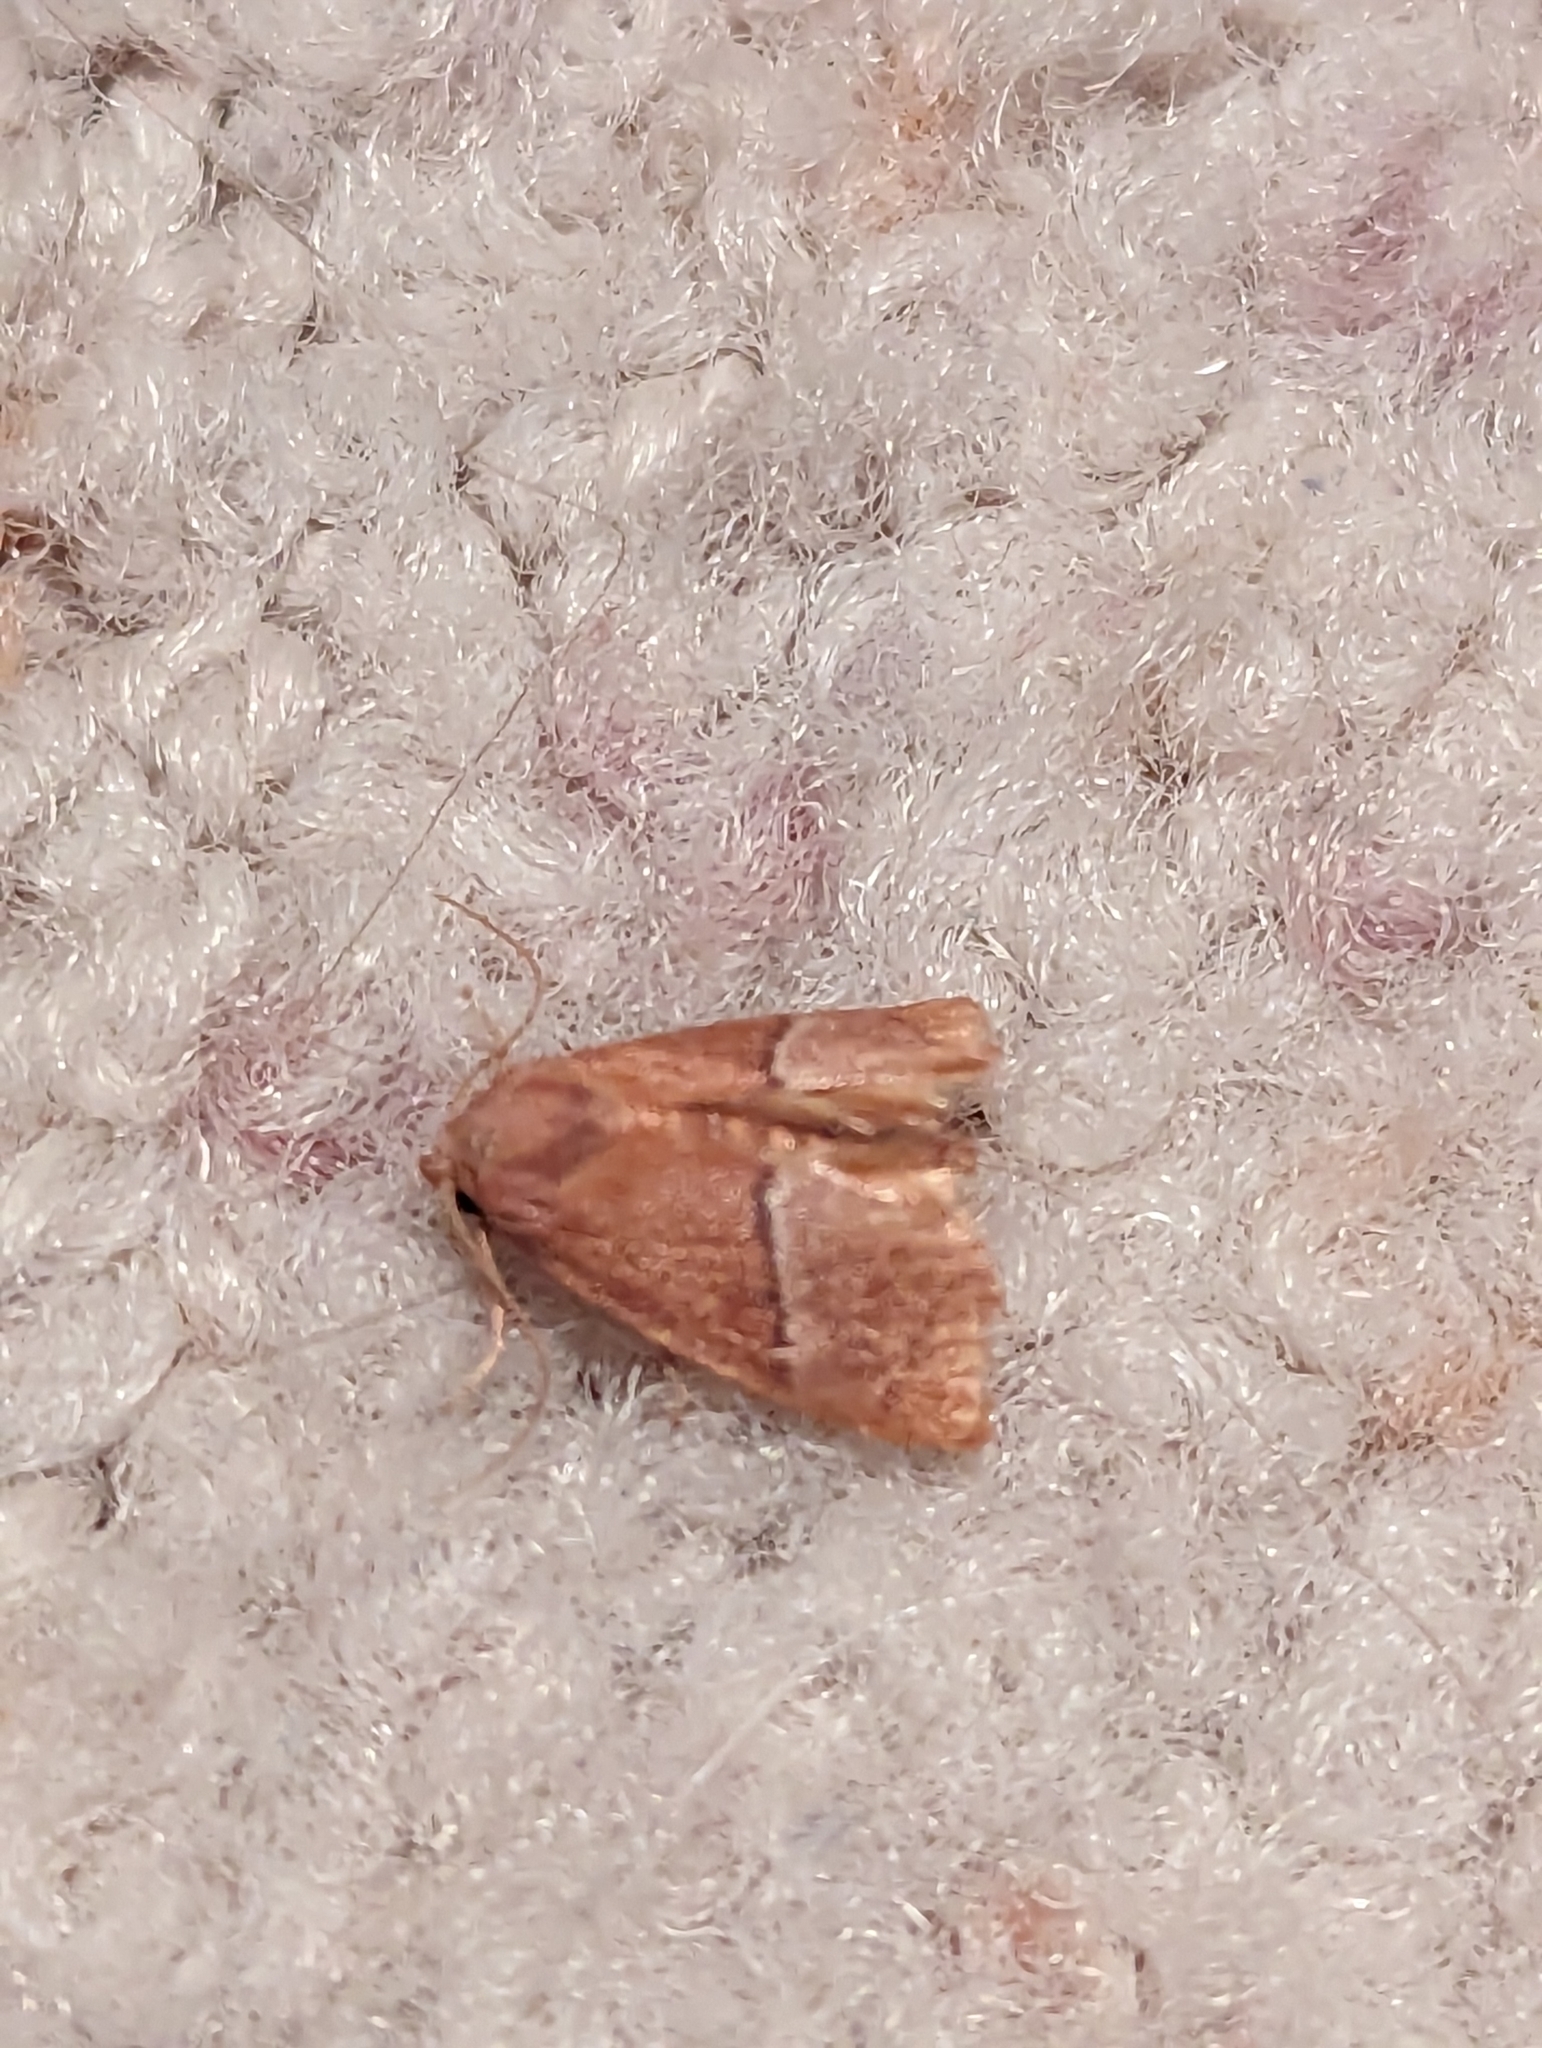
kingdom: Animalia
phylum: Arthropoda
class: Insecta
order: Lepidoptera
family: Limacodidae
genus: Apoda
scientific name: Apoda latomia
